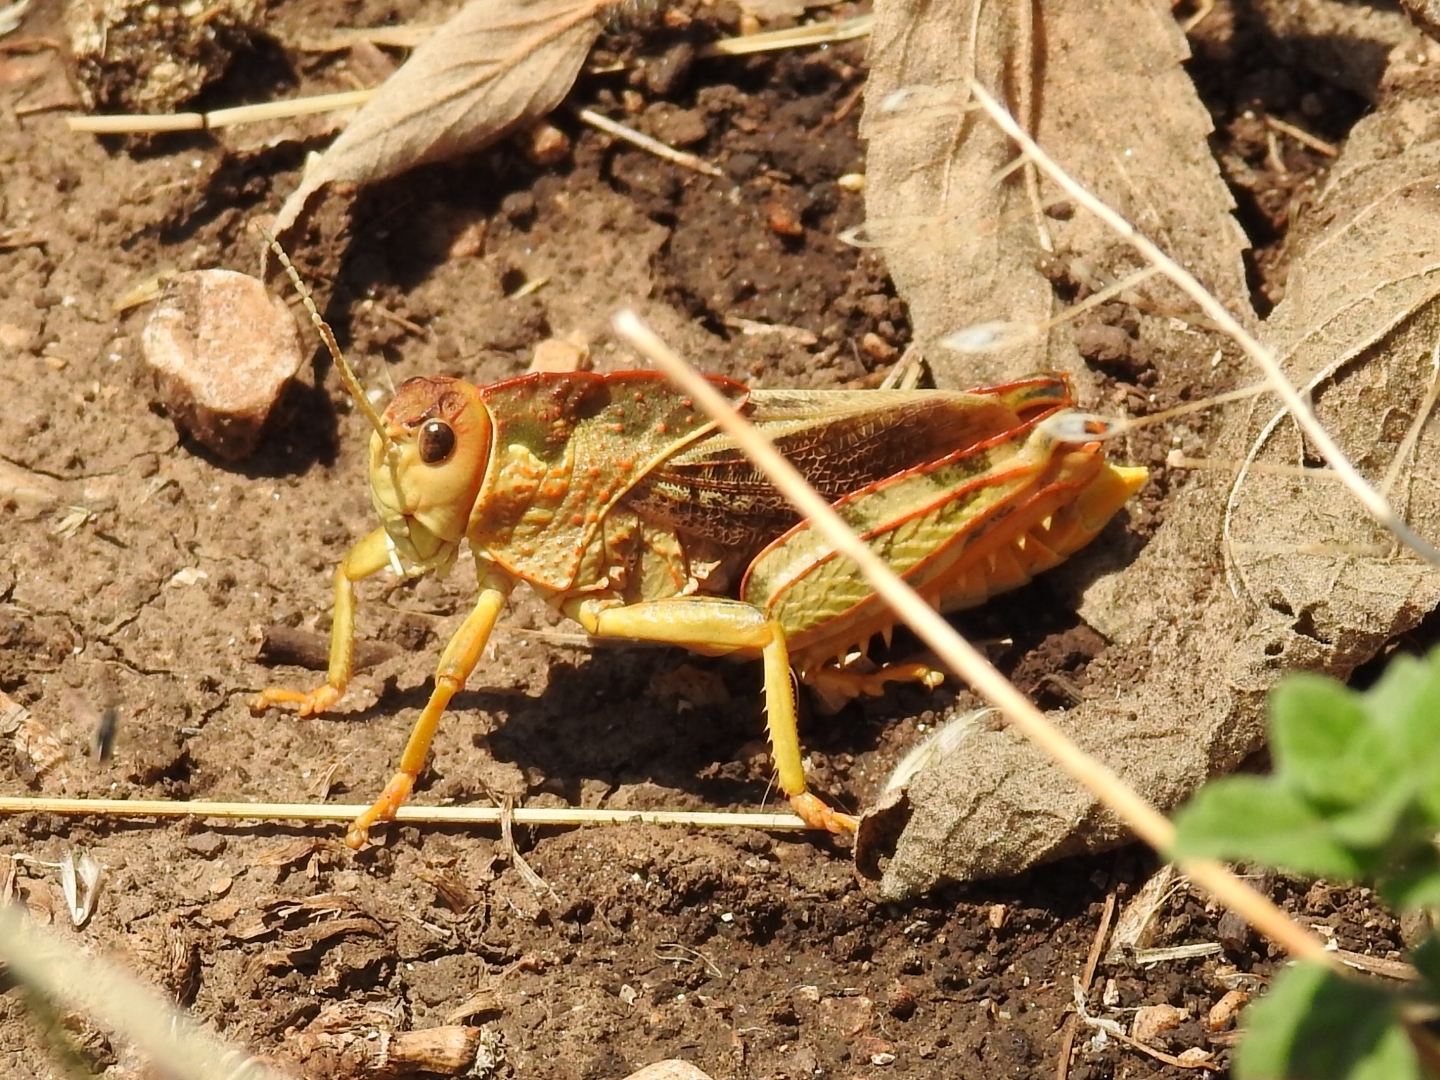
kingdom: Animalia
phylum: Arthropoda
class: Insecta
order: Orthoptera
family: Pamphagidae
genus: Prionotropis
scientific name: Prionotropis appula
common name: Apulian stone grasshopper
